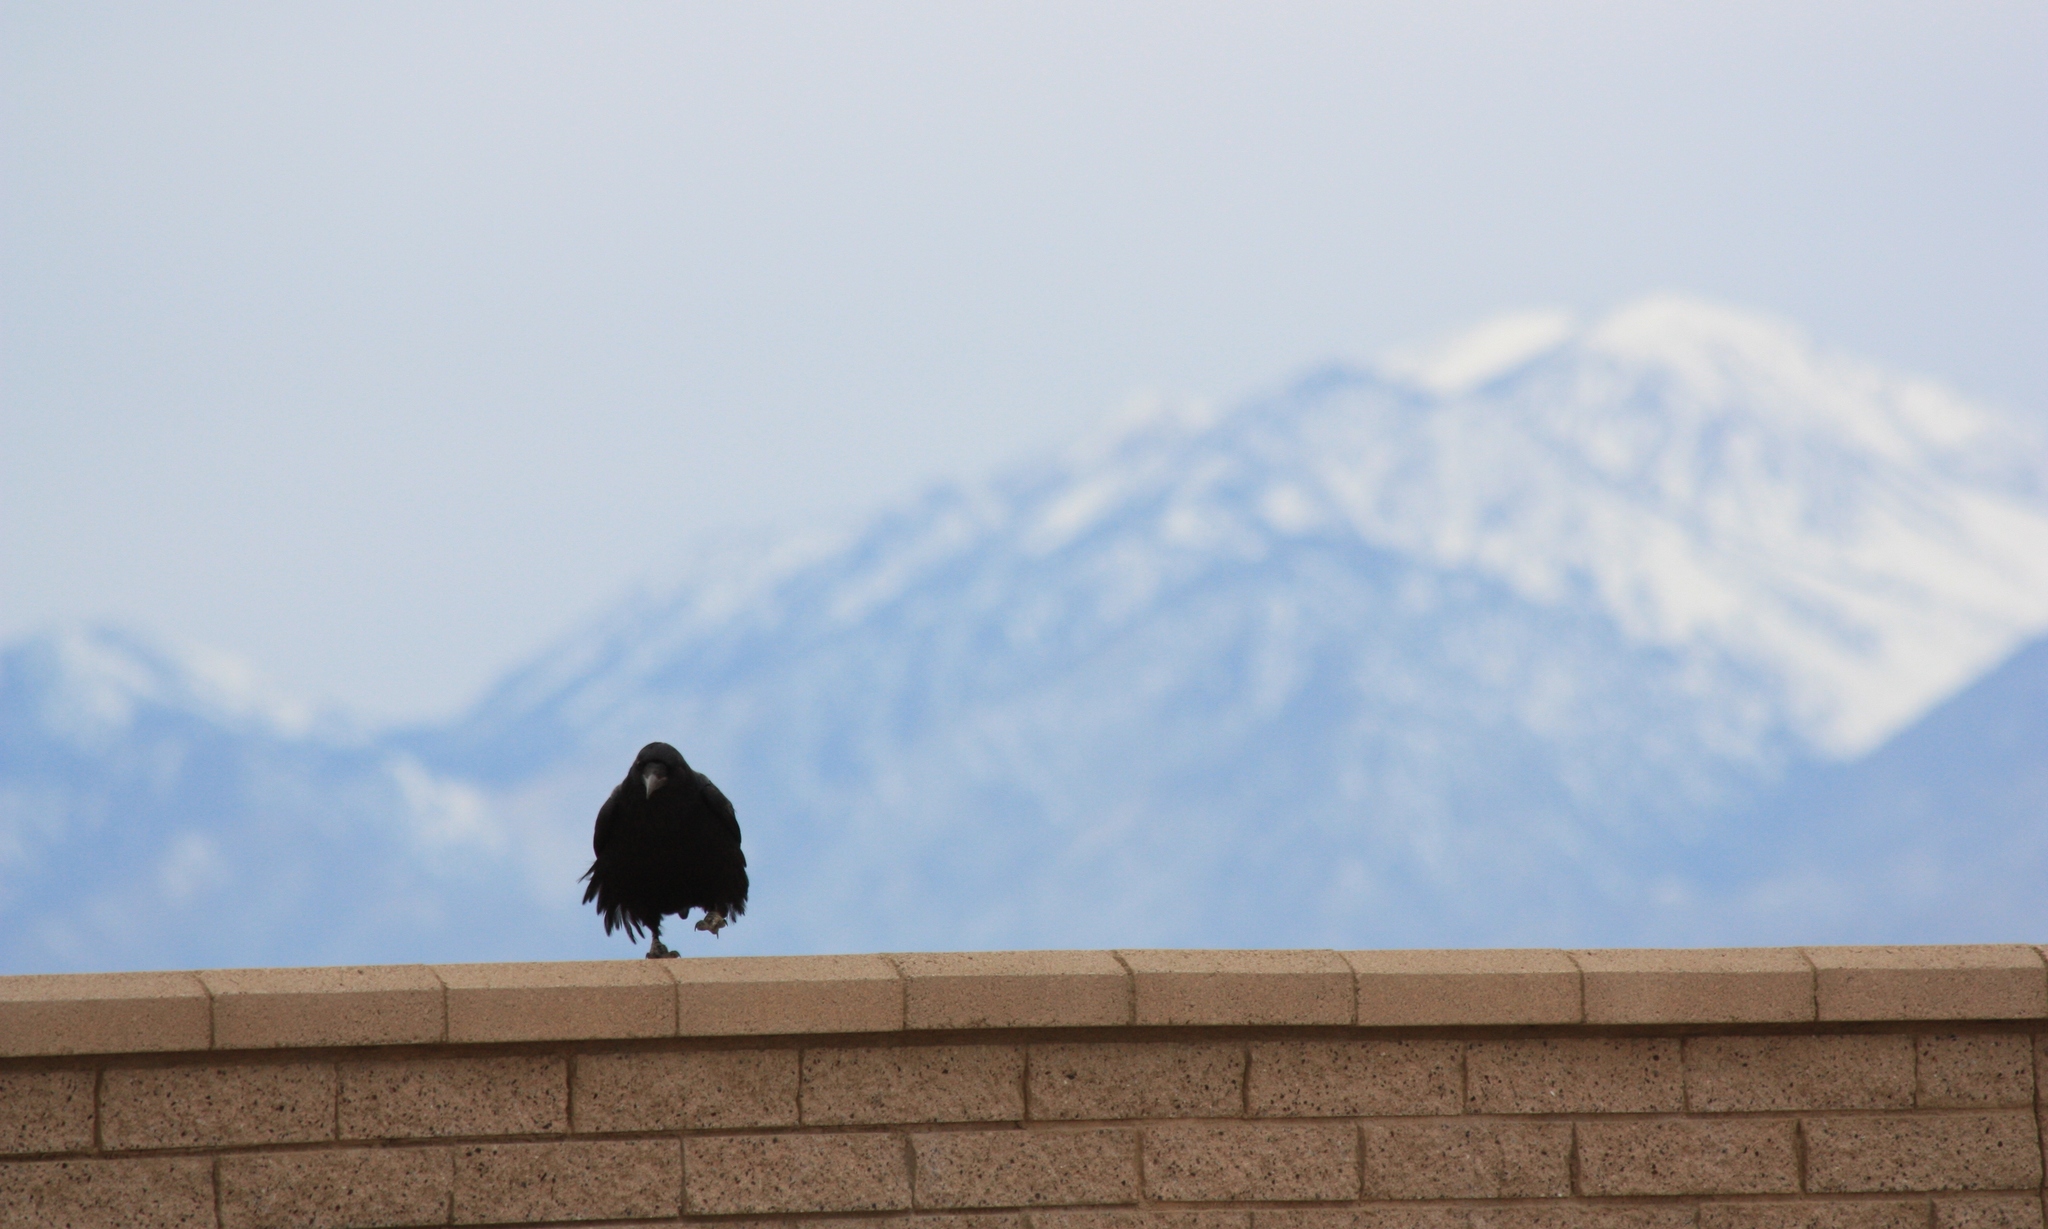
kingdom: Animalia
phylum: Chordata
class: Aves
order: Passeriformes
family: Corvidae
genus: Corvus
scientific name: Corvus corax
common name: Common raven
